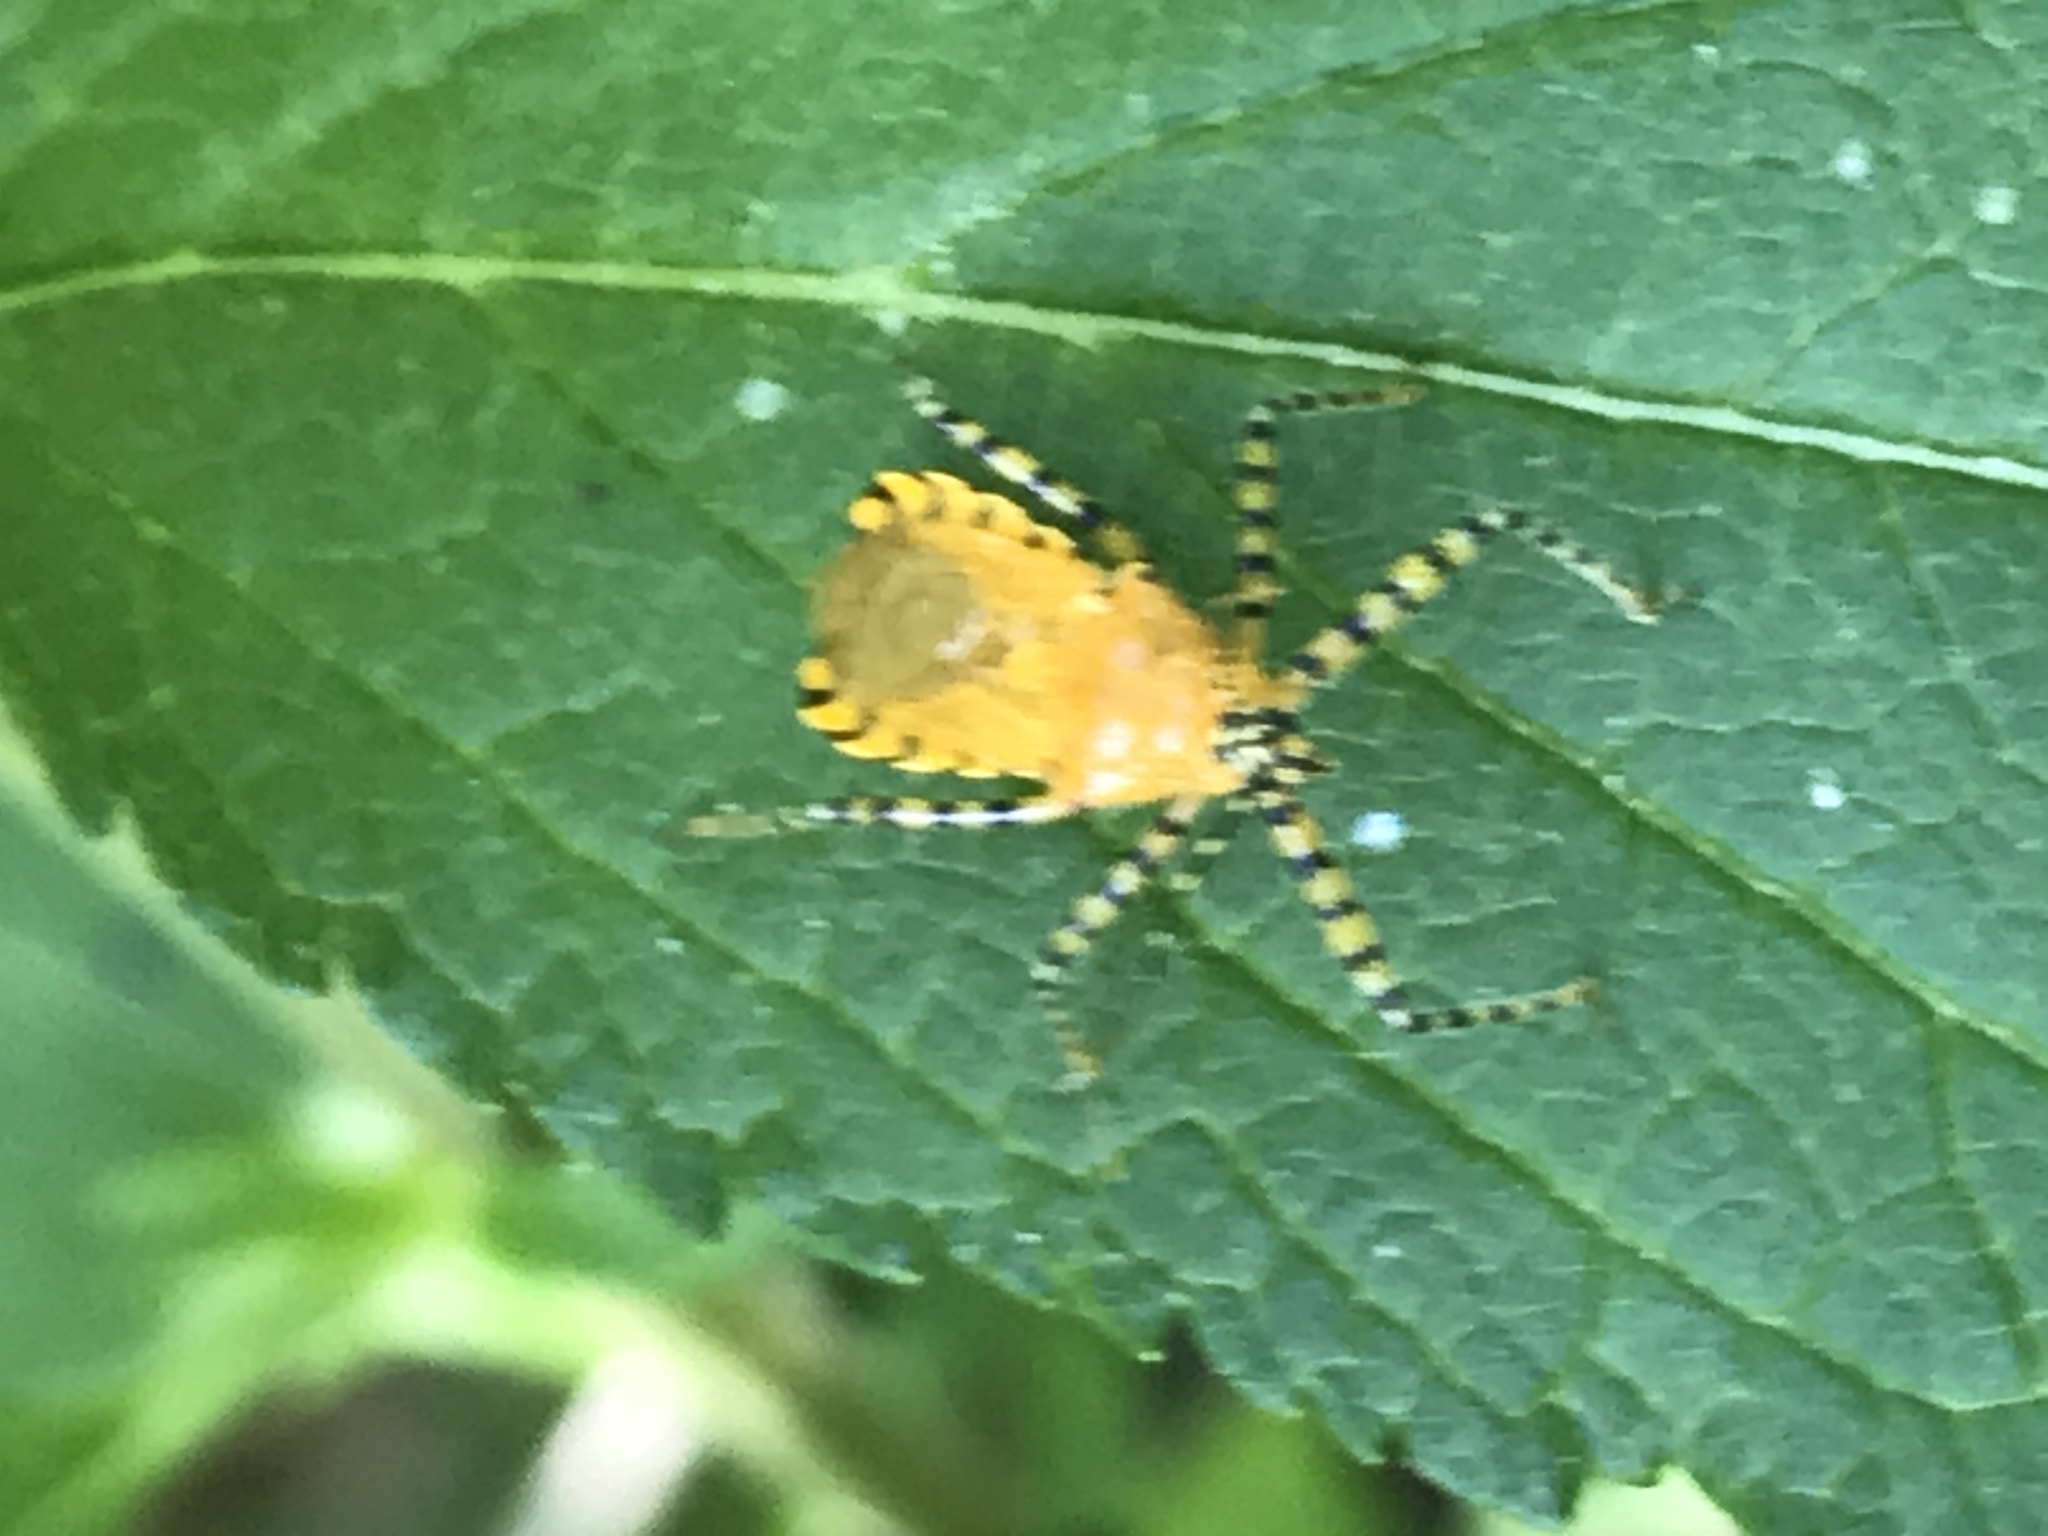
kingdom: Animalia
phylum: Arthropoda
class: Insecta
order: Hemiptera
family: Reduviidae
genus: Pselliopus
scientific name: Pselliopus barberi
